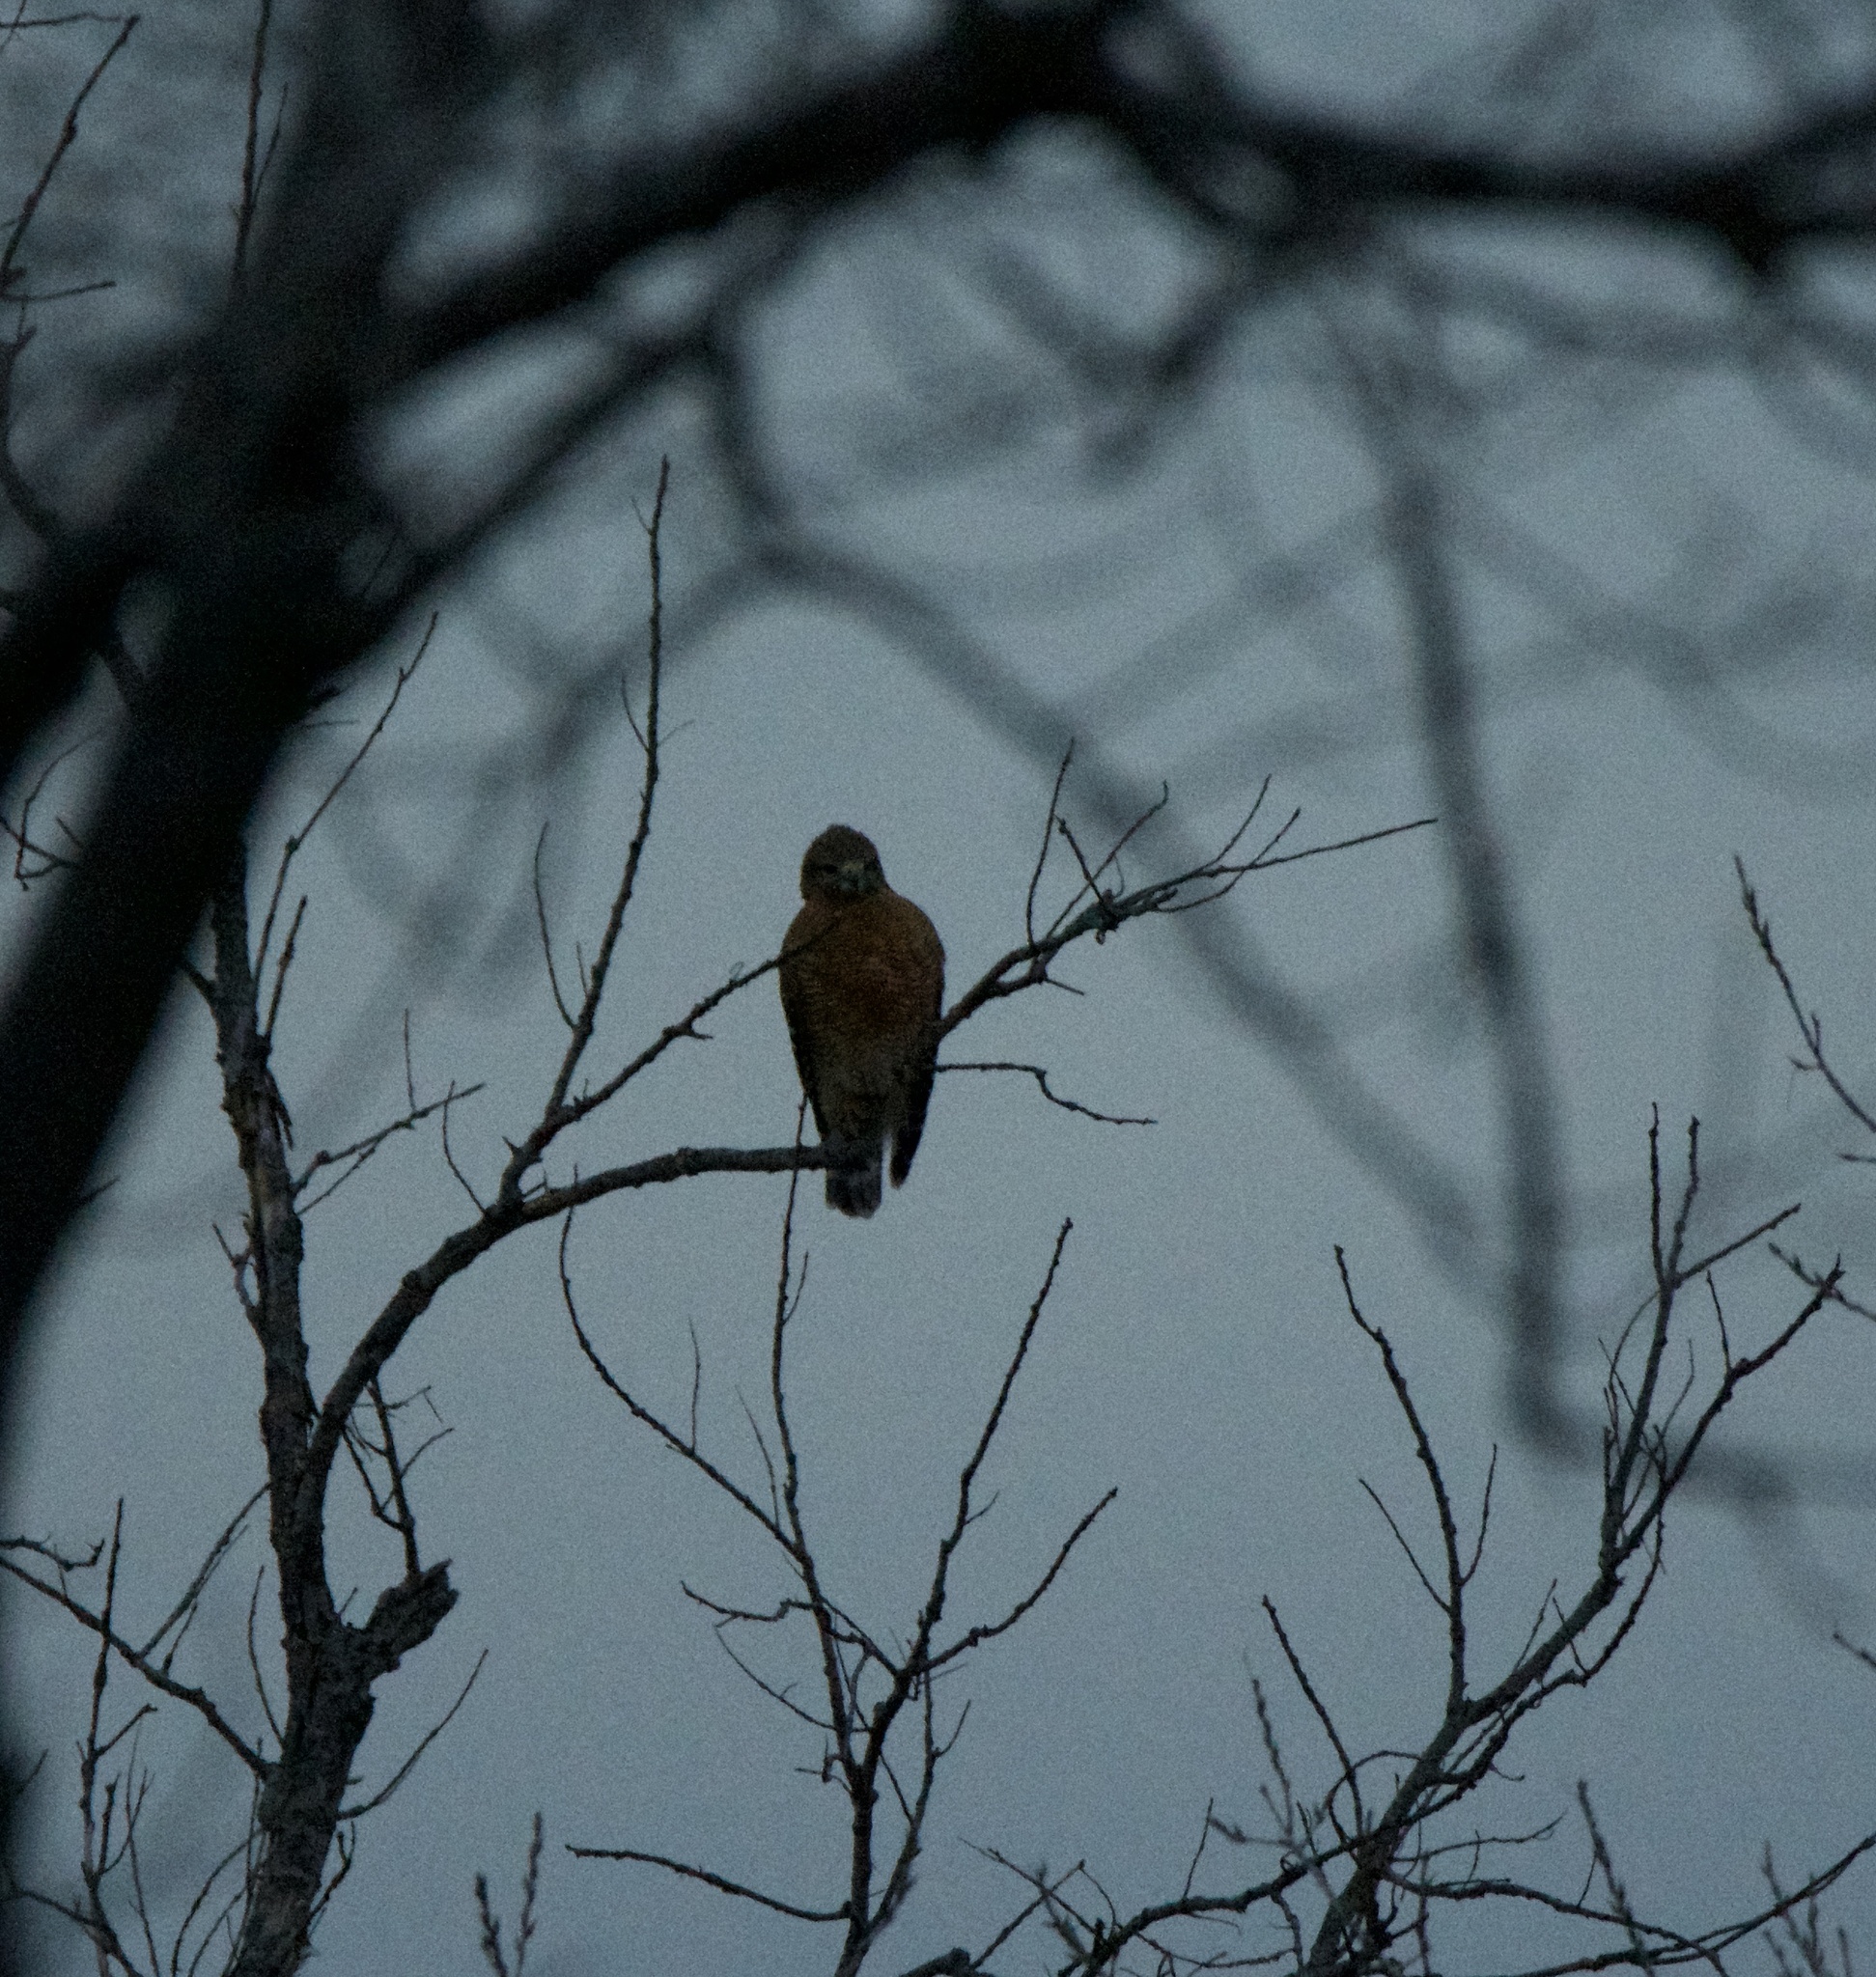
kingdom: Animalia
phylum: Chordata
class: Aves
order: Accipitriformes
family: Accipitridae
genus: Buteo
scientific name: Buteo lineatus
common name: Red-shouldered hawk
